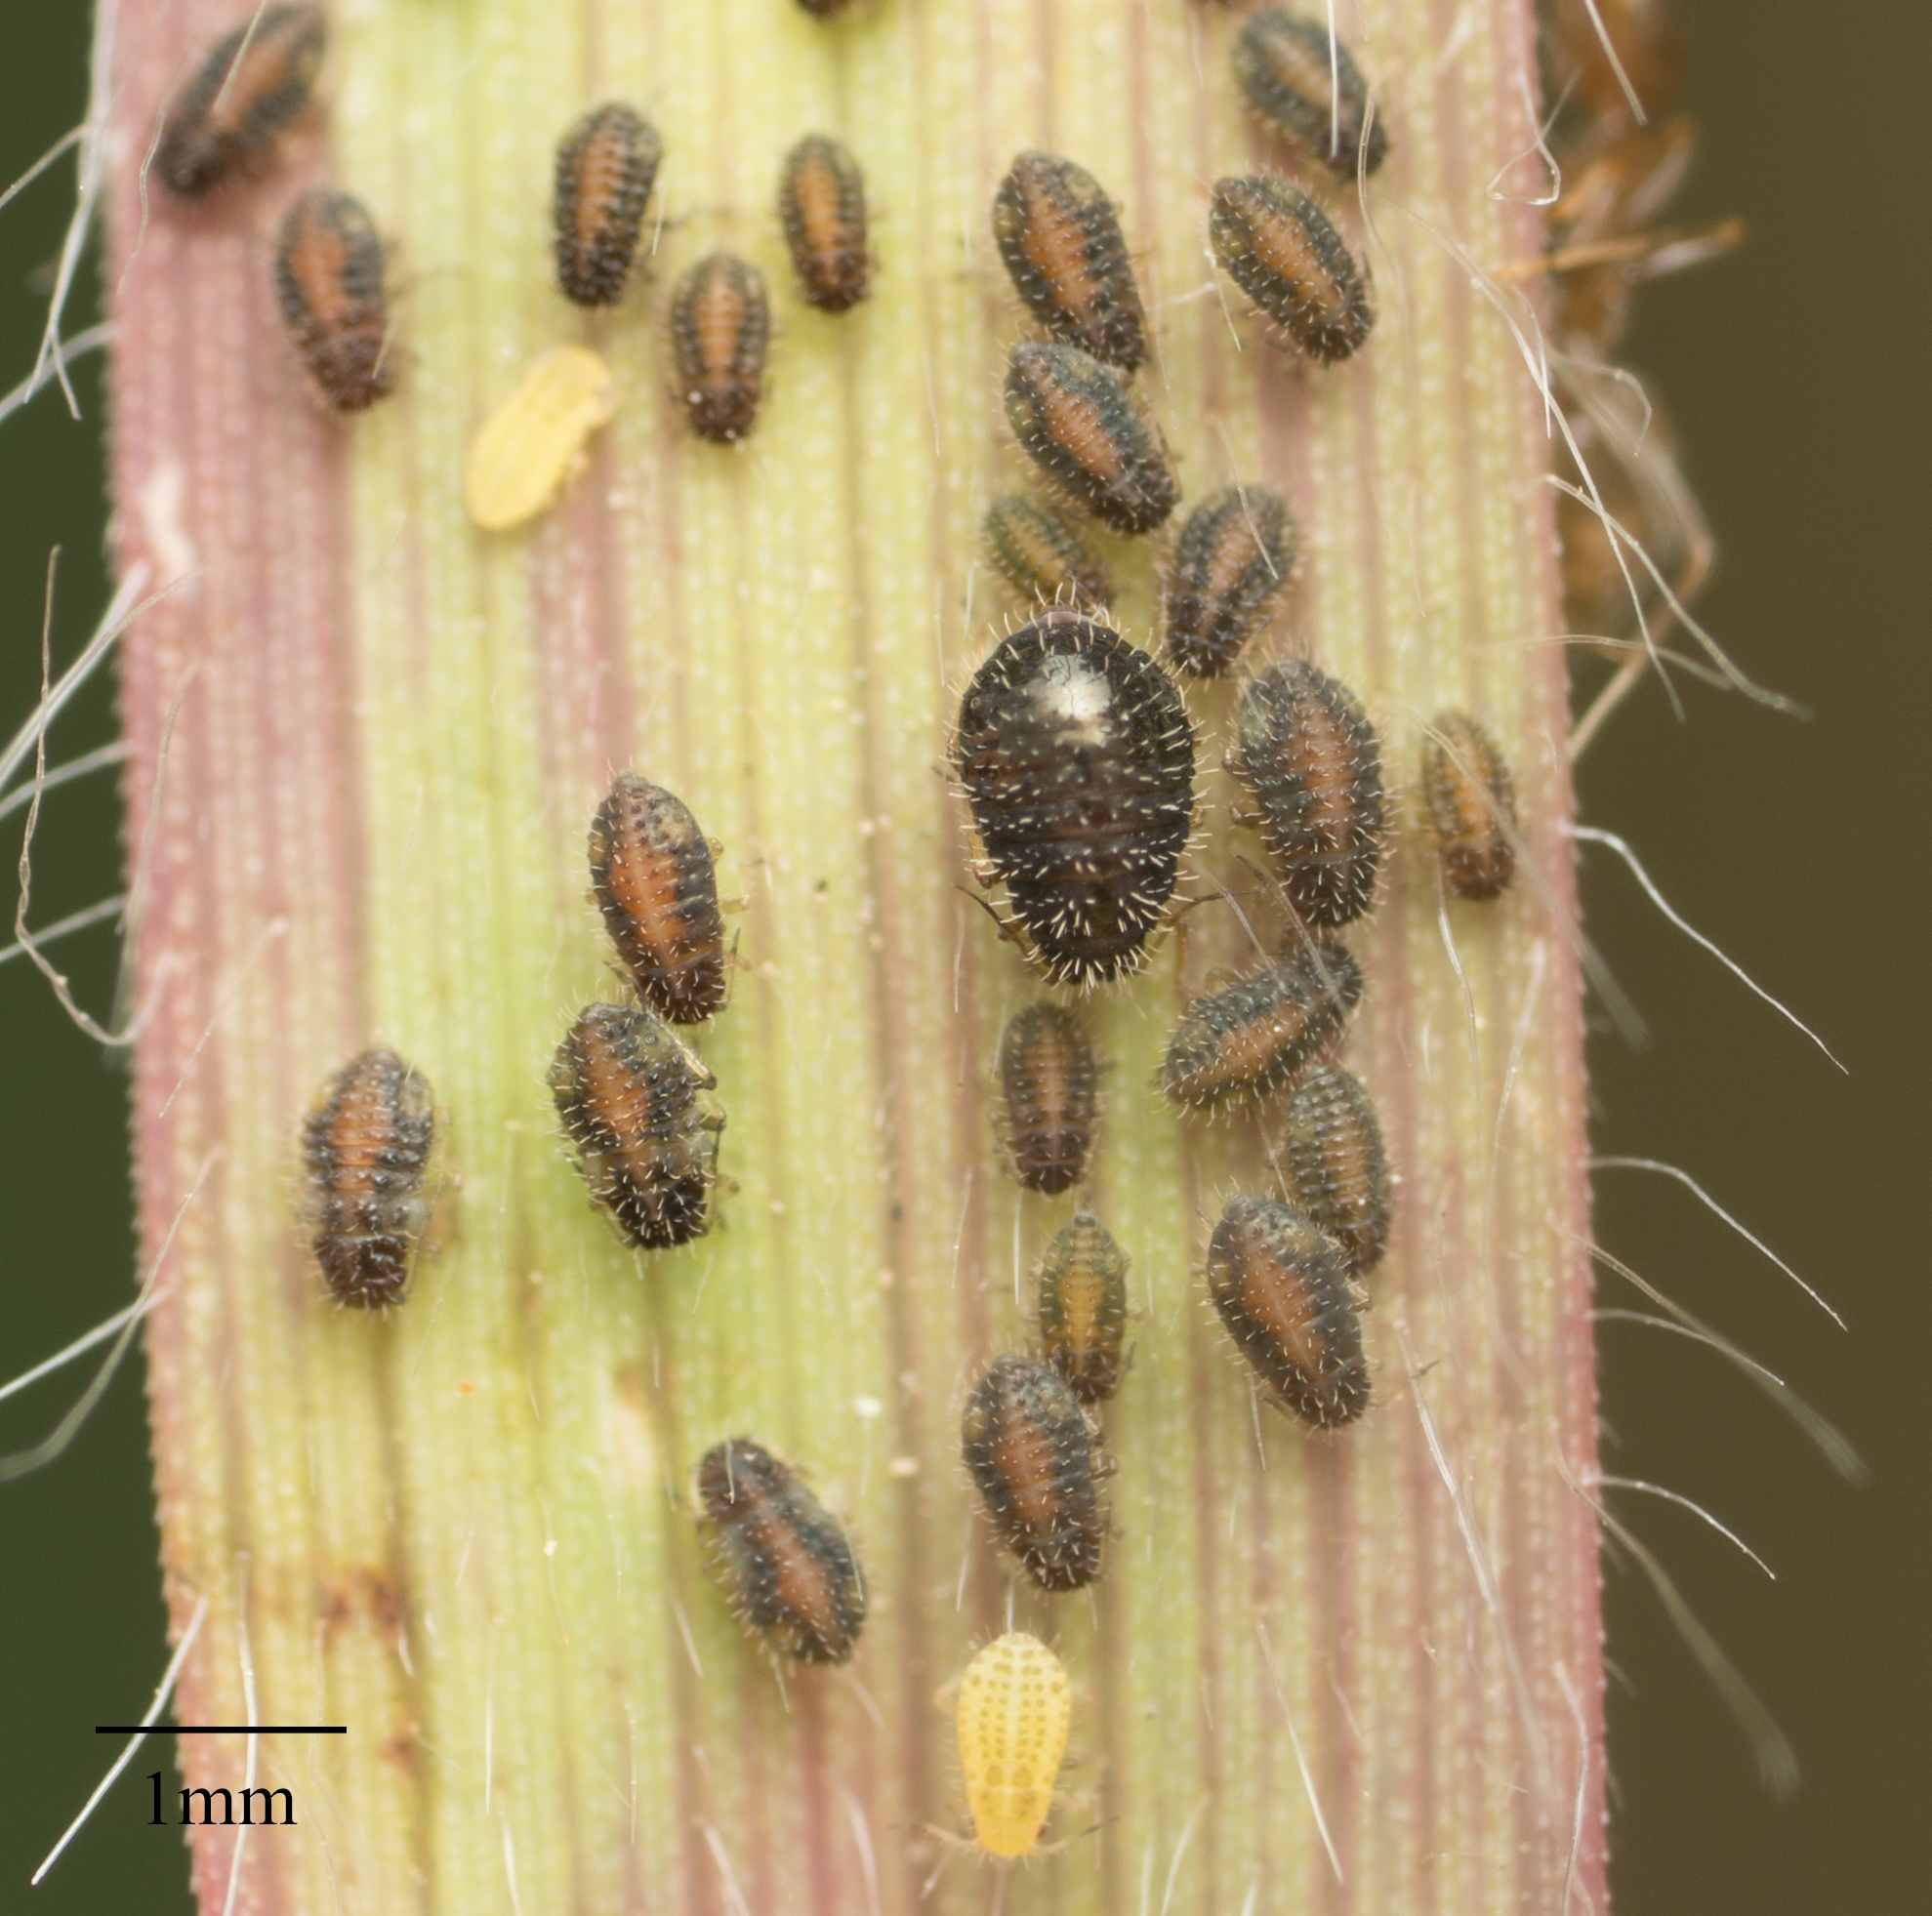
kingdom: Animalia
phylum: Arthropoda
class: Insecta
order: Hemiptera
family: Aphididae
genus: Sipha
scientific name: Sipha maydis
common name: Aphid
